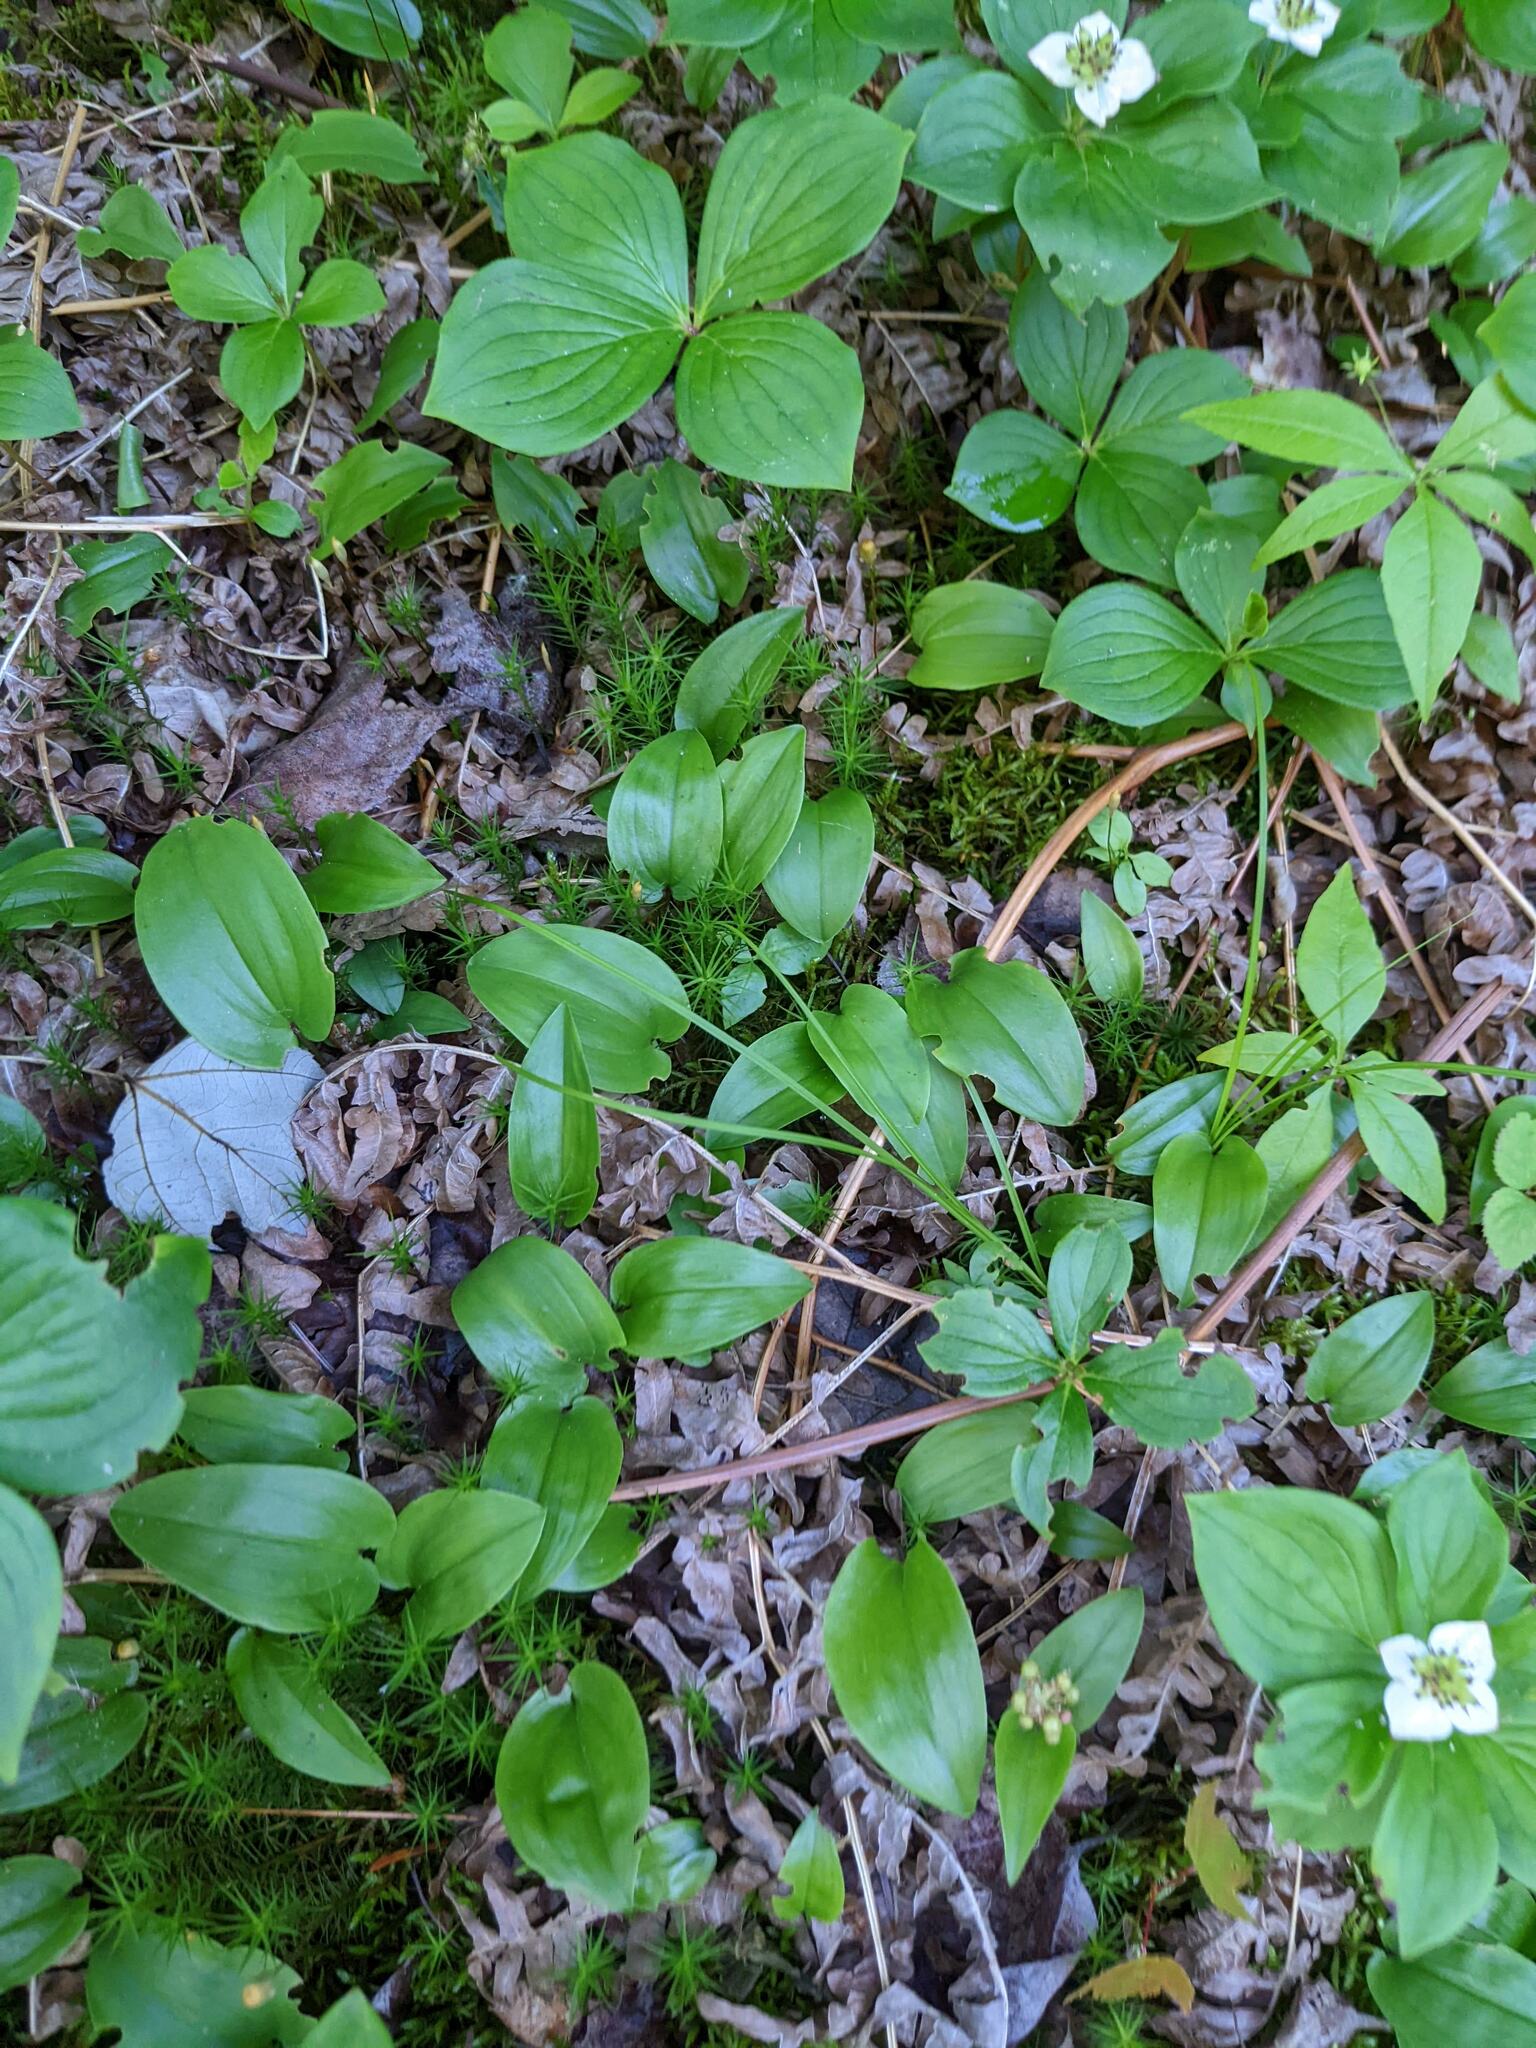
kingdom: Plantae
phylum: Tracheophyta
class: Liliopsida
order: Asparagales
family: Asparagaceae
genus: Maianthemum
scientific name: Maianthemum canadense
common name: False lily-of-the-valley
